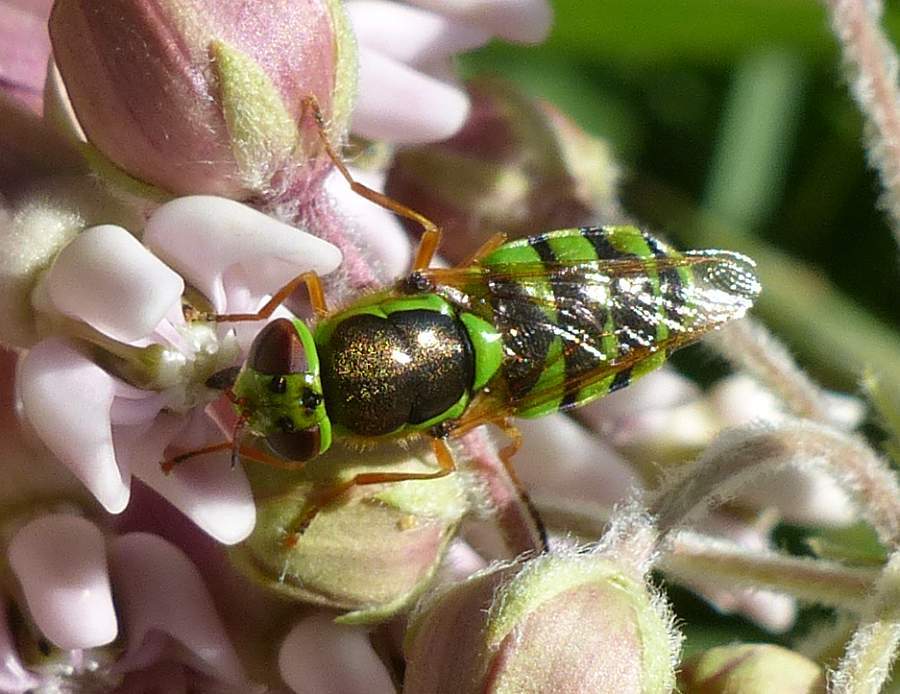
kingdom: Animalia
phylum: Arthropoda
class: Insecta
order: Diptera
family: Stratiomyidae
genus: Odontomyia
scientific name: Odontomyia cincta
